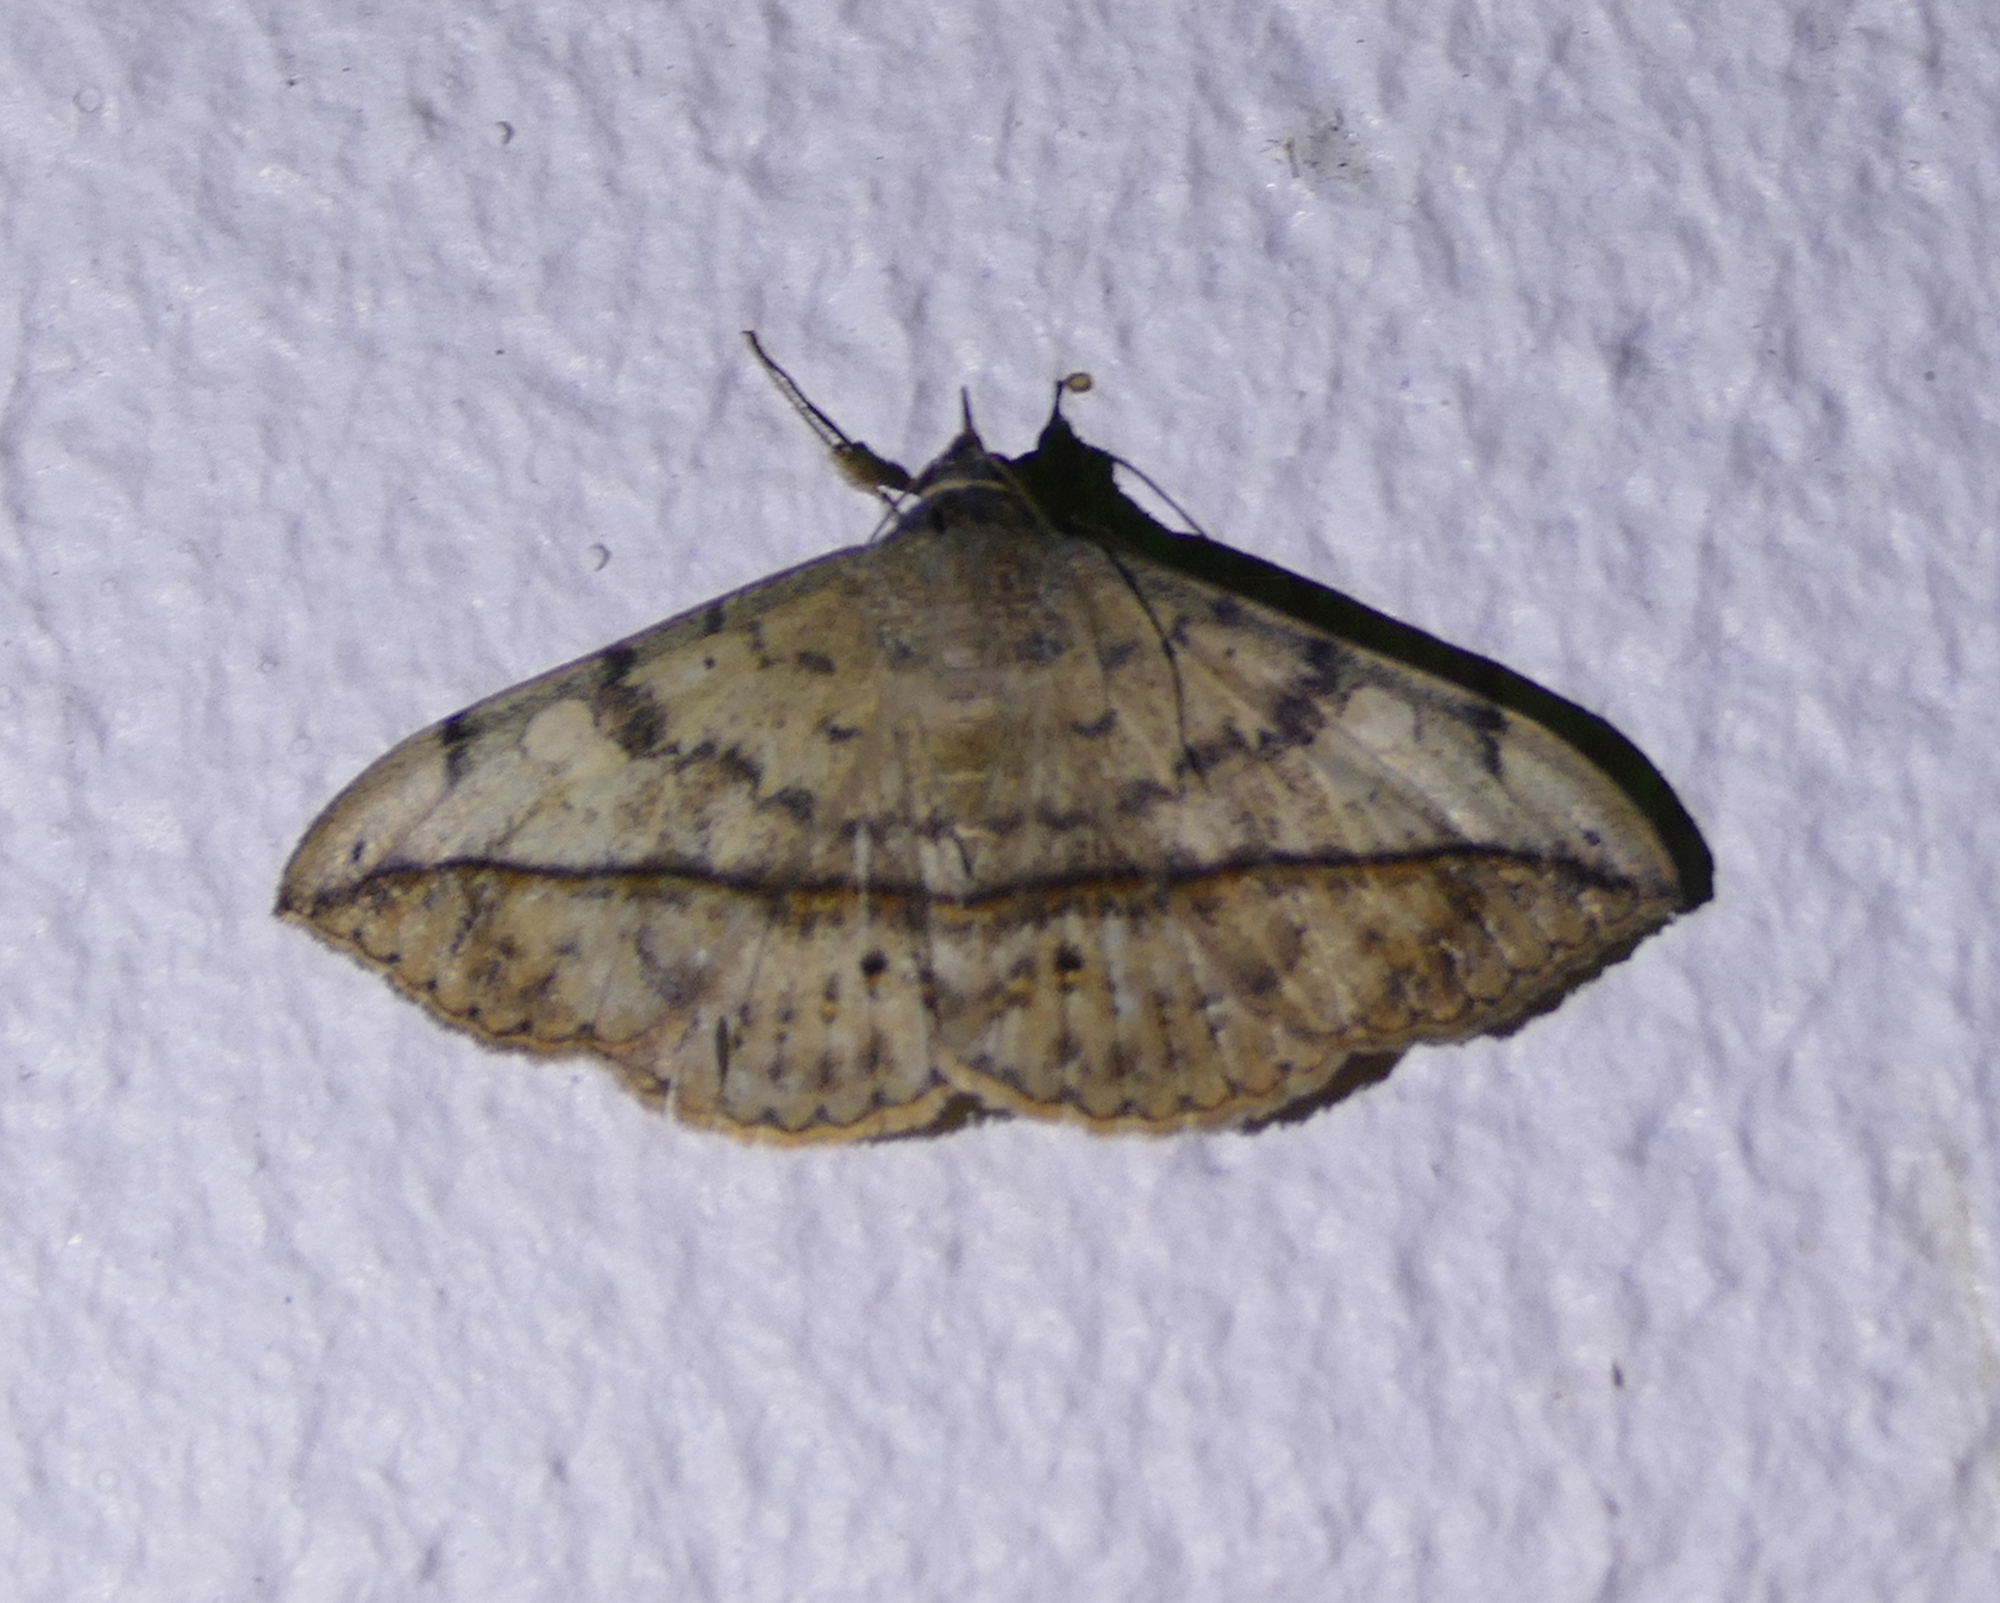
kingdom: Animalia
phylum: Arthropoda
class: Insecta
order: Lepidoptera
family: Erebidae
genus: Anticarsia
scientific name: Anticarsia gemmatalis
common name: Cutworm moth
